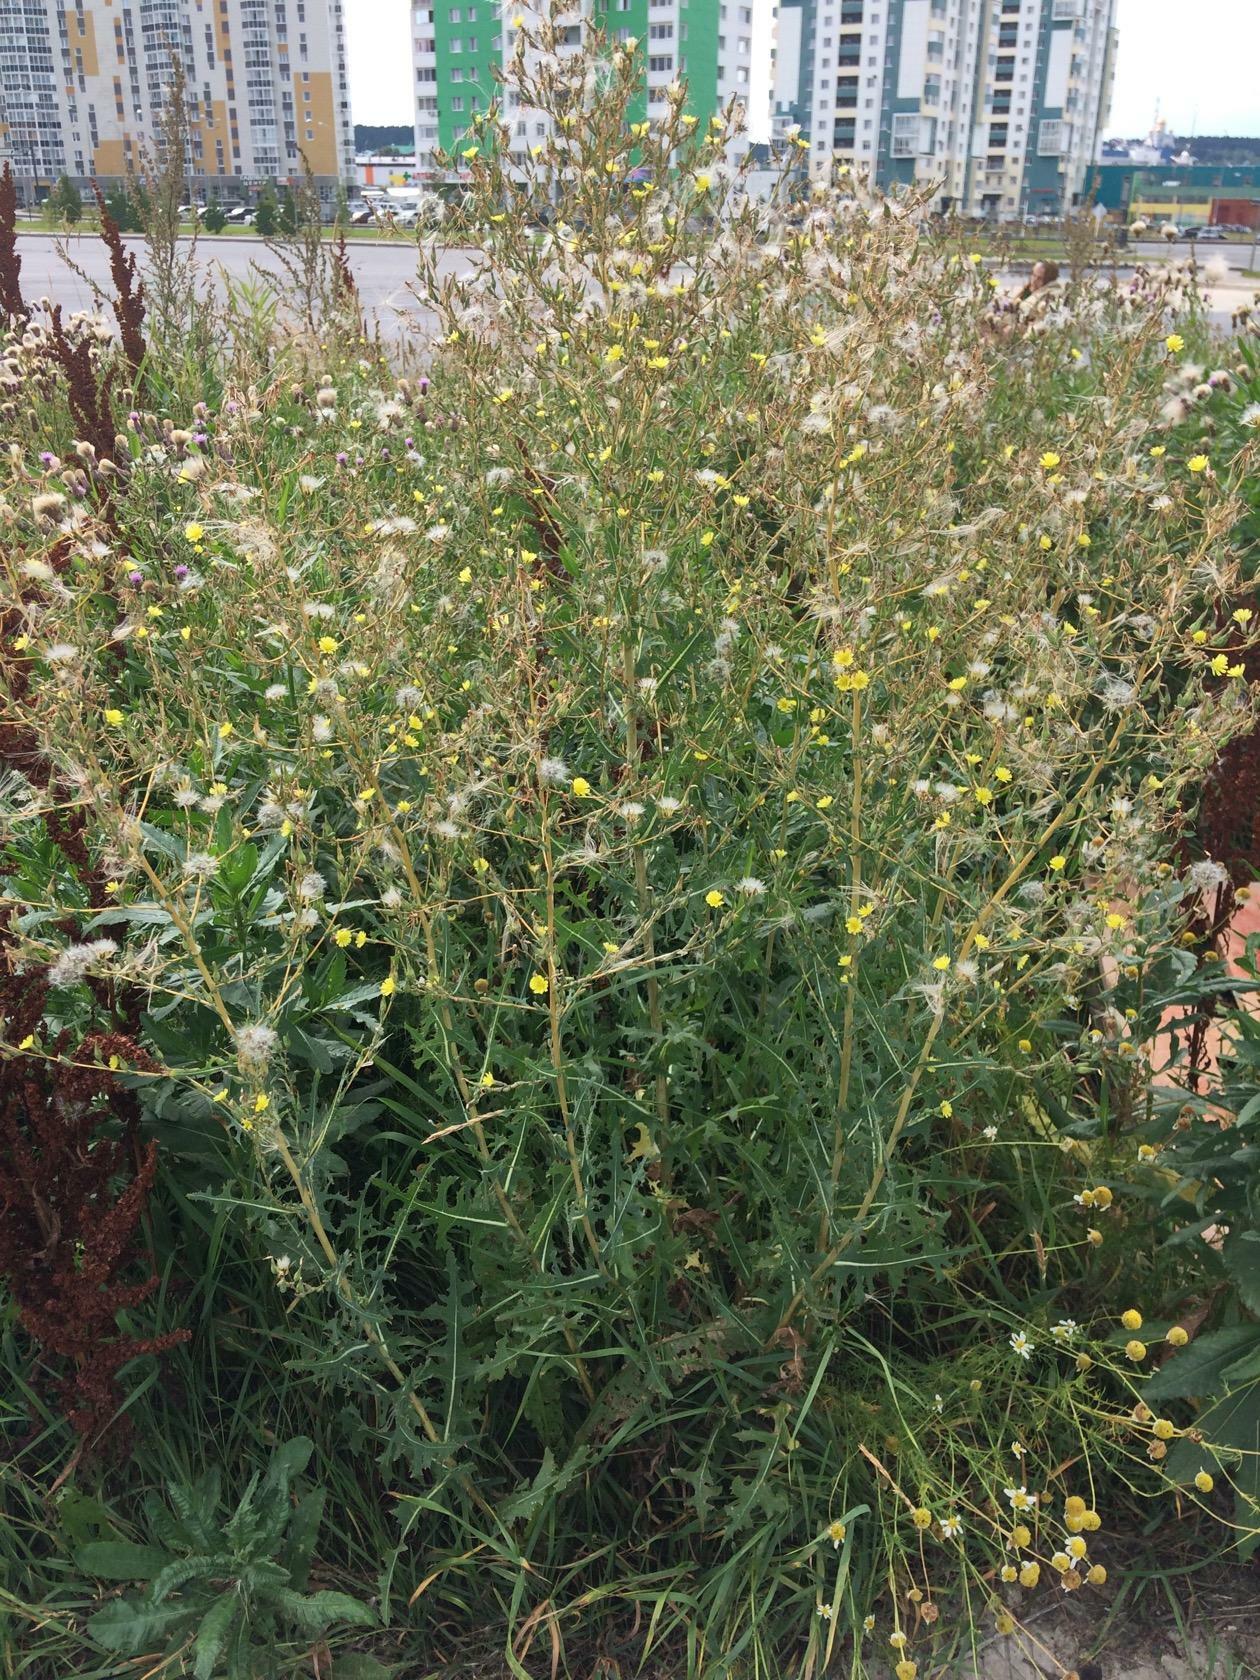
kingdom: Plantae
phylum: Tracheophyta
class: Magnoliopsida
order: Asterales
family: Asteraceae
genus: Lactuca
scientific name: Lactuca serriola
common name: Prickly lettuce
